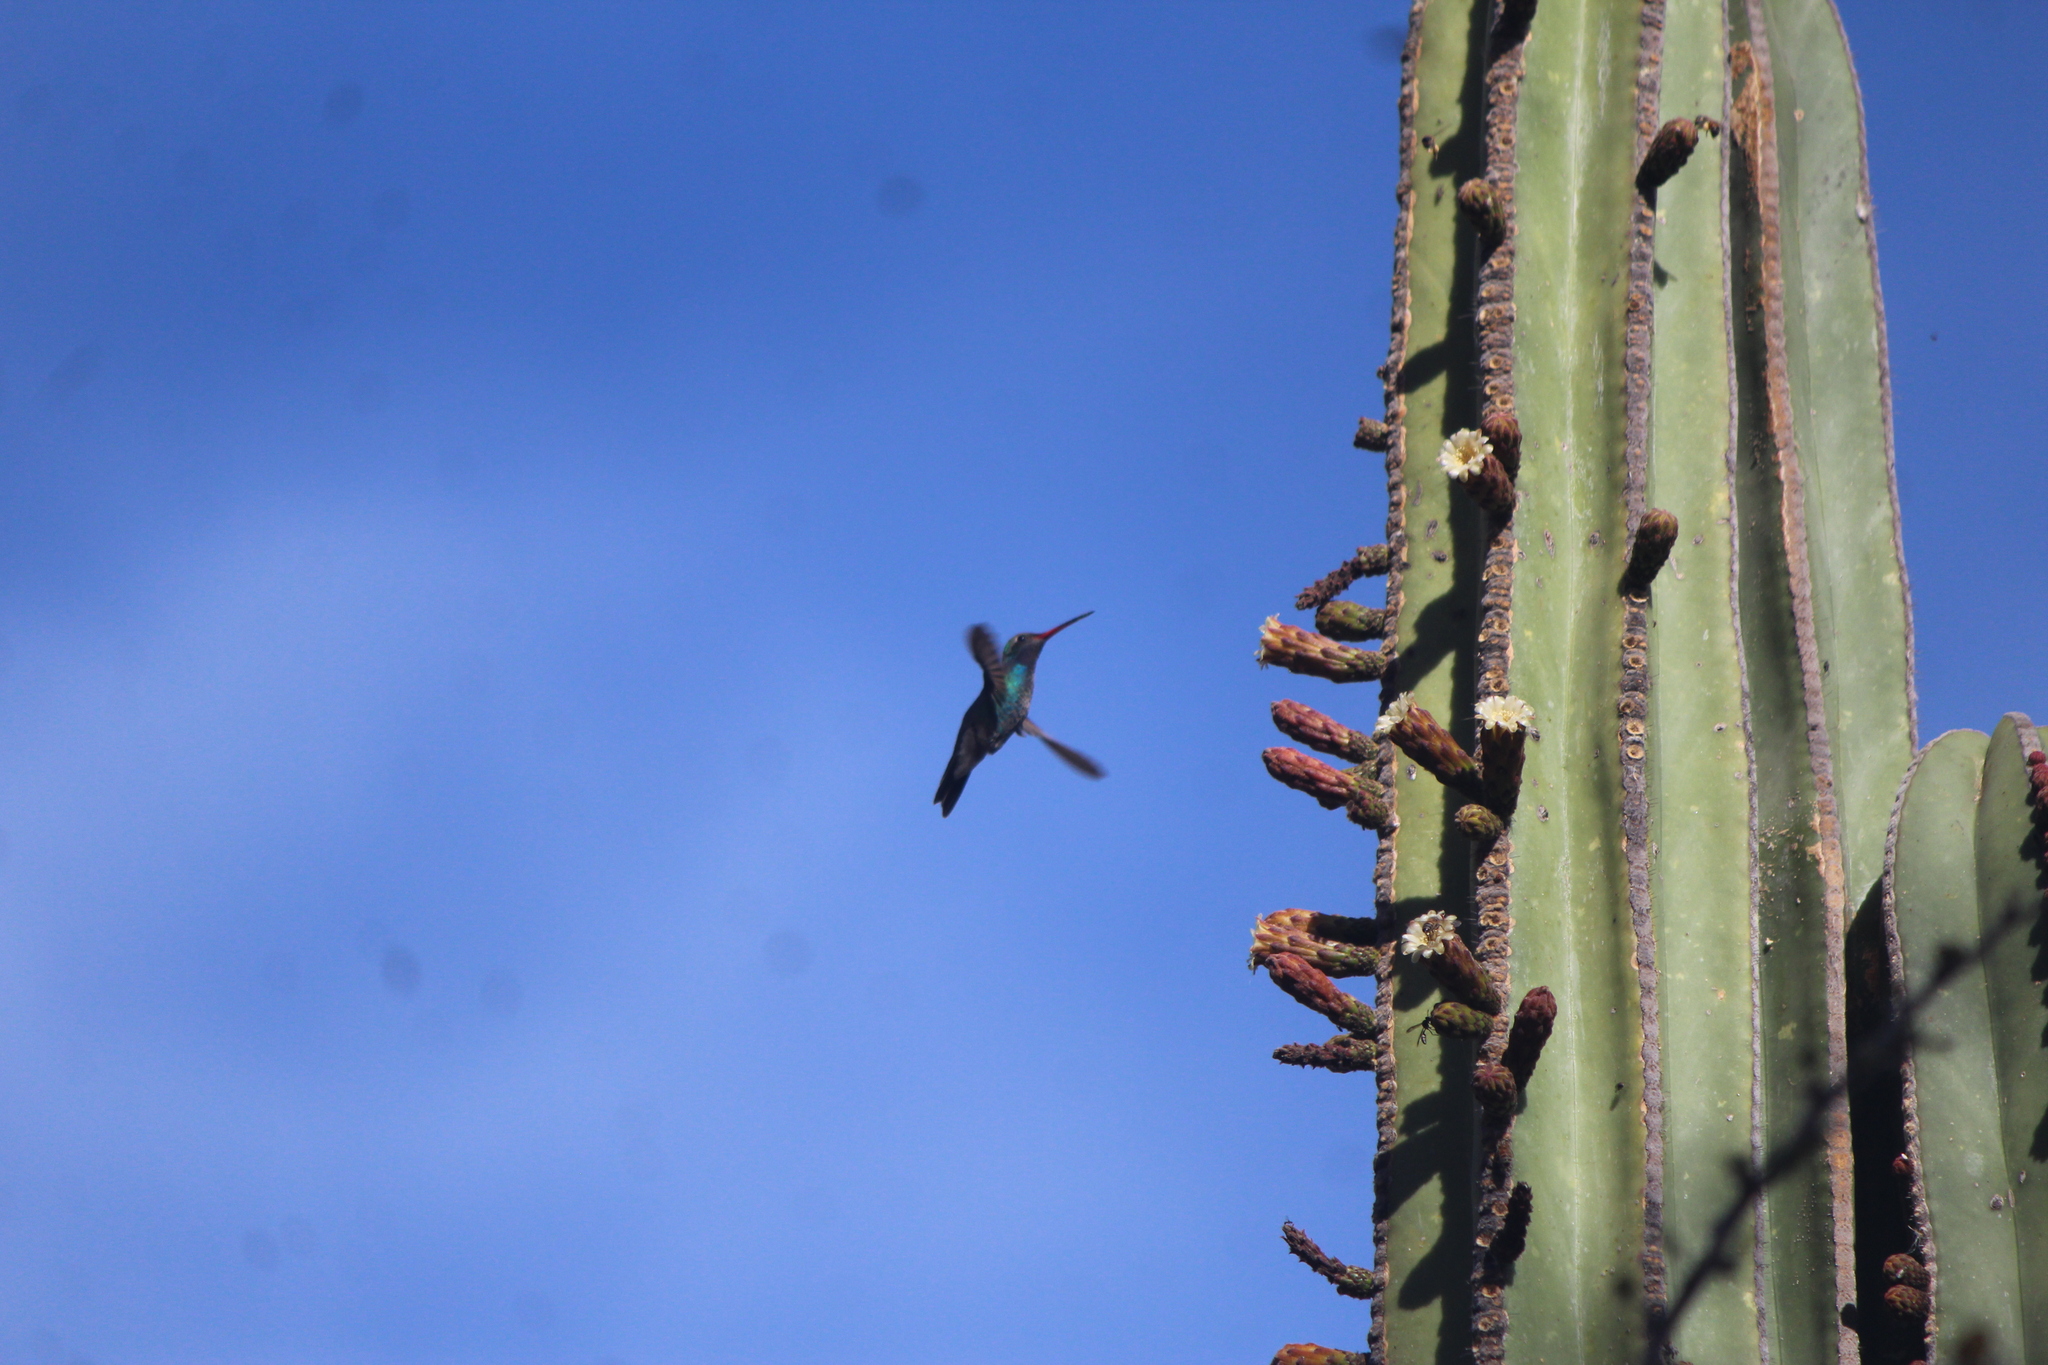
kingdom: Animalia
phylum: Chordata
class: Aves
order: Apodiformes
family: Trochilidae
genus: Cynanthus
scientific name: Cynanthus latirostris
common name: Broad-billed hummingbird
